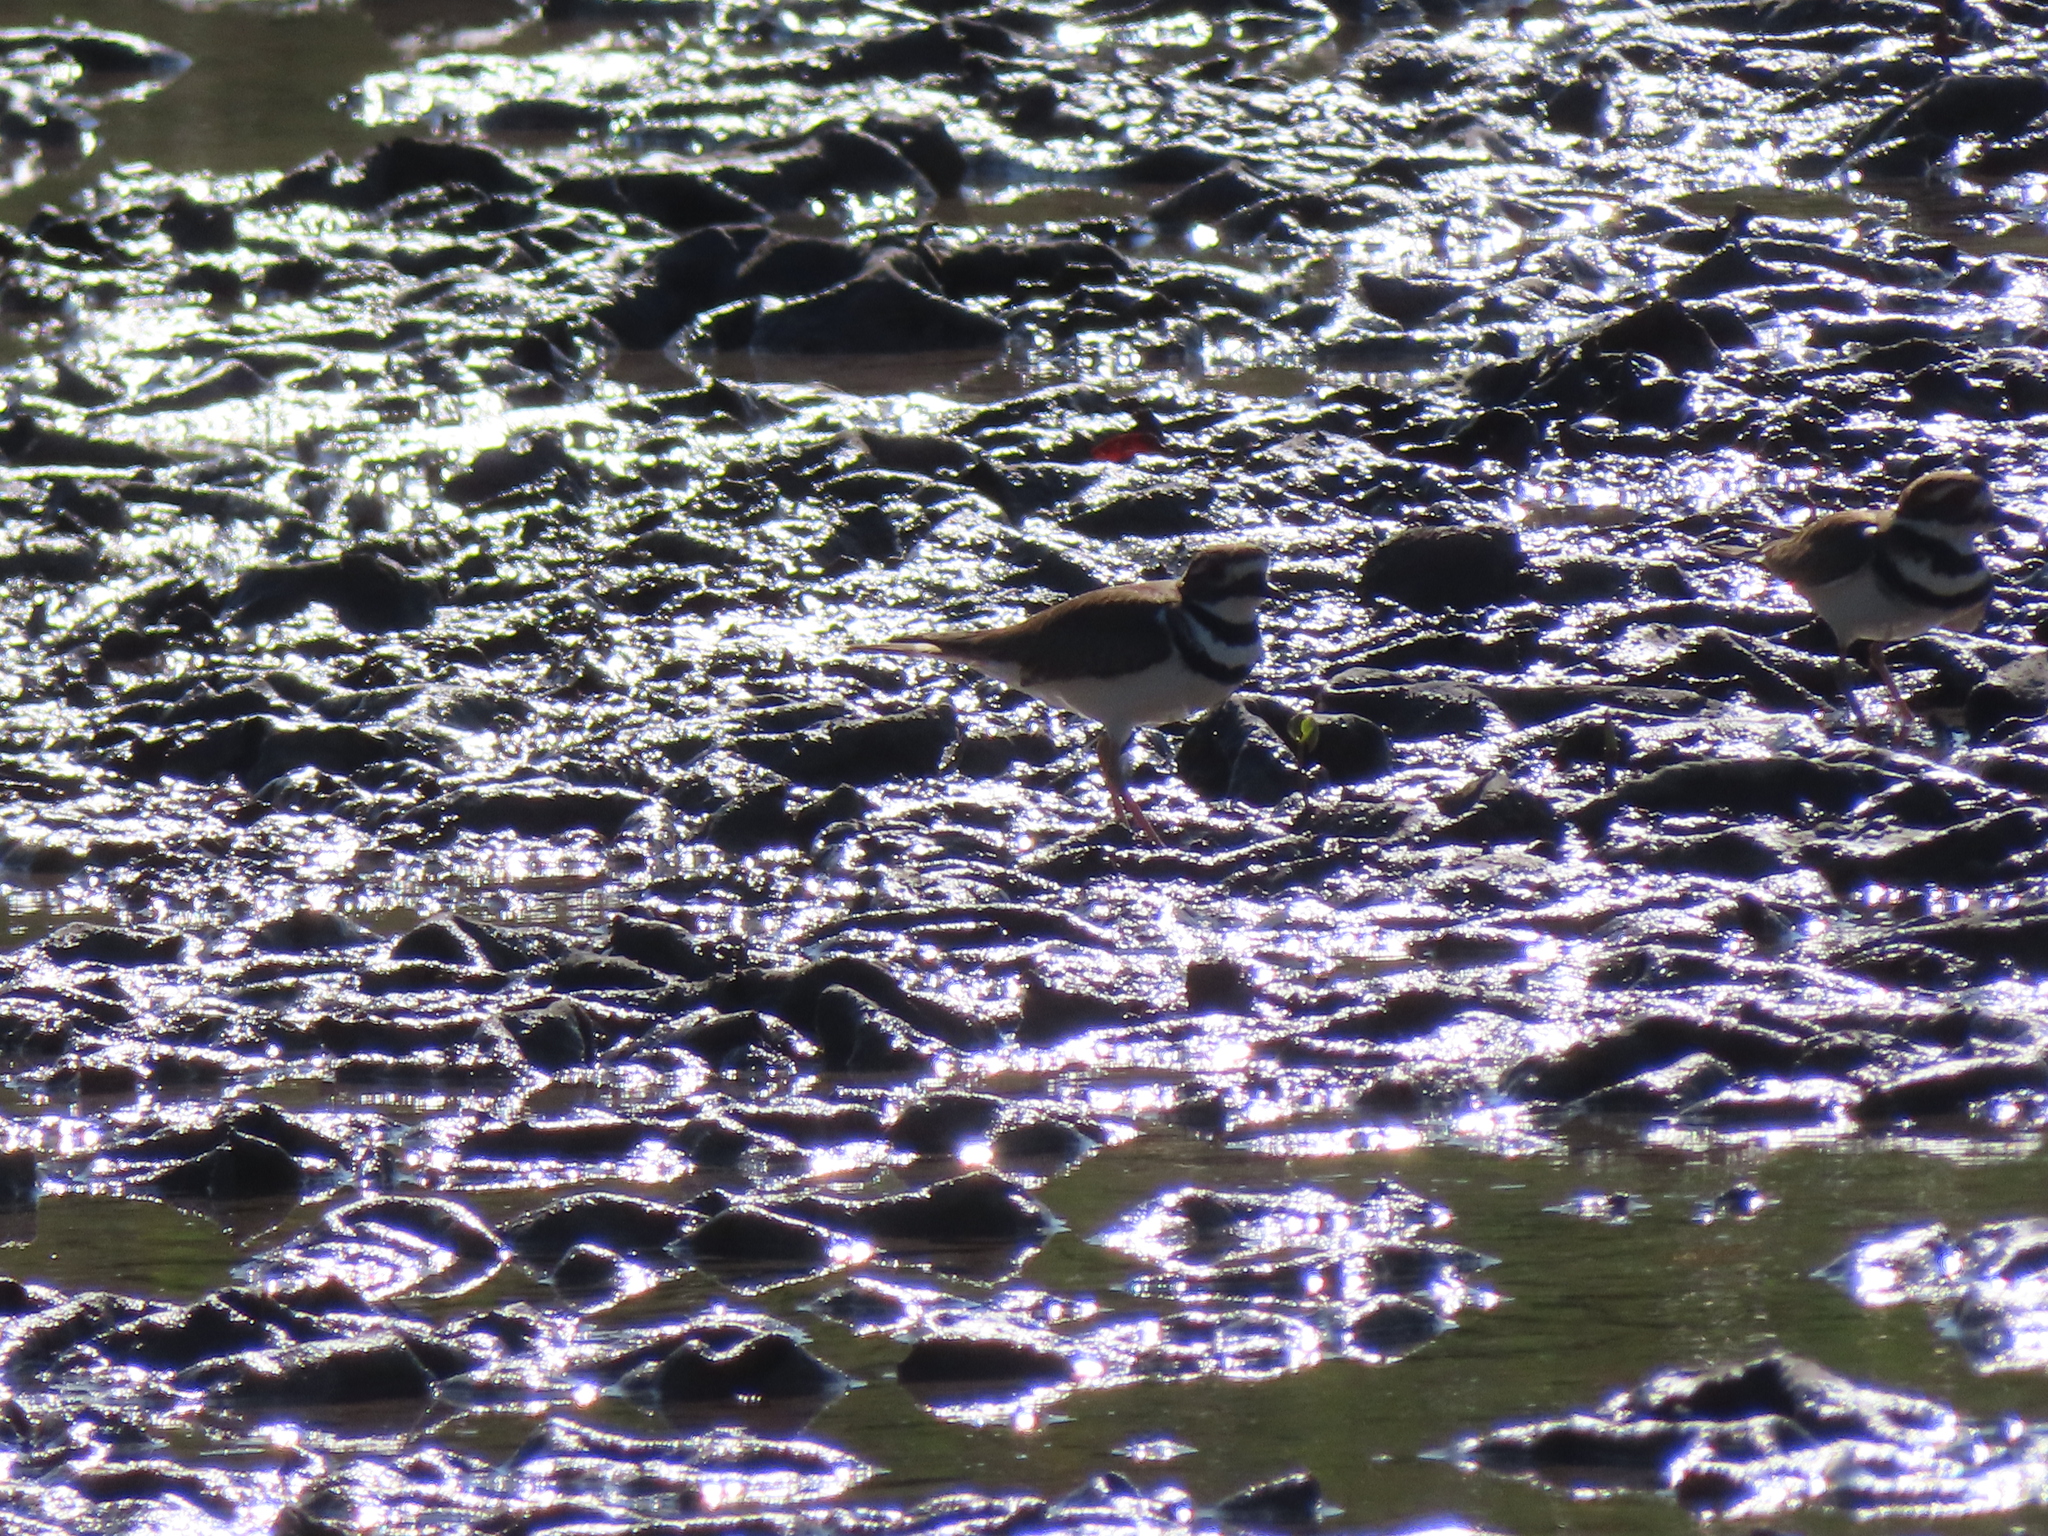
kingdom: Animalia
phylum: Chordata
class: Aves
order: Charadriiformes
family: Charadriidae
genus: Charadrius
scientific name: Charadrius vociferus
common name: Killdeer
